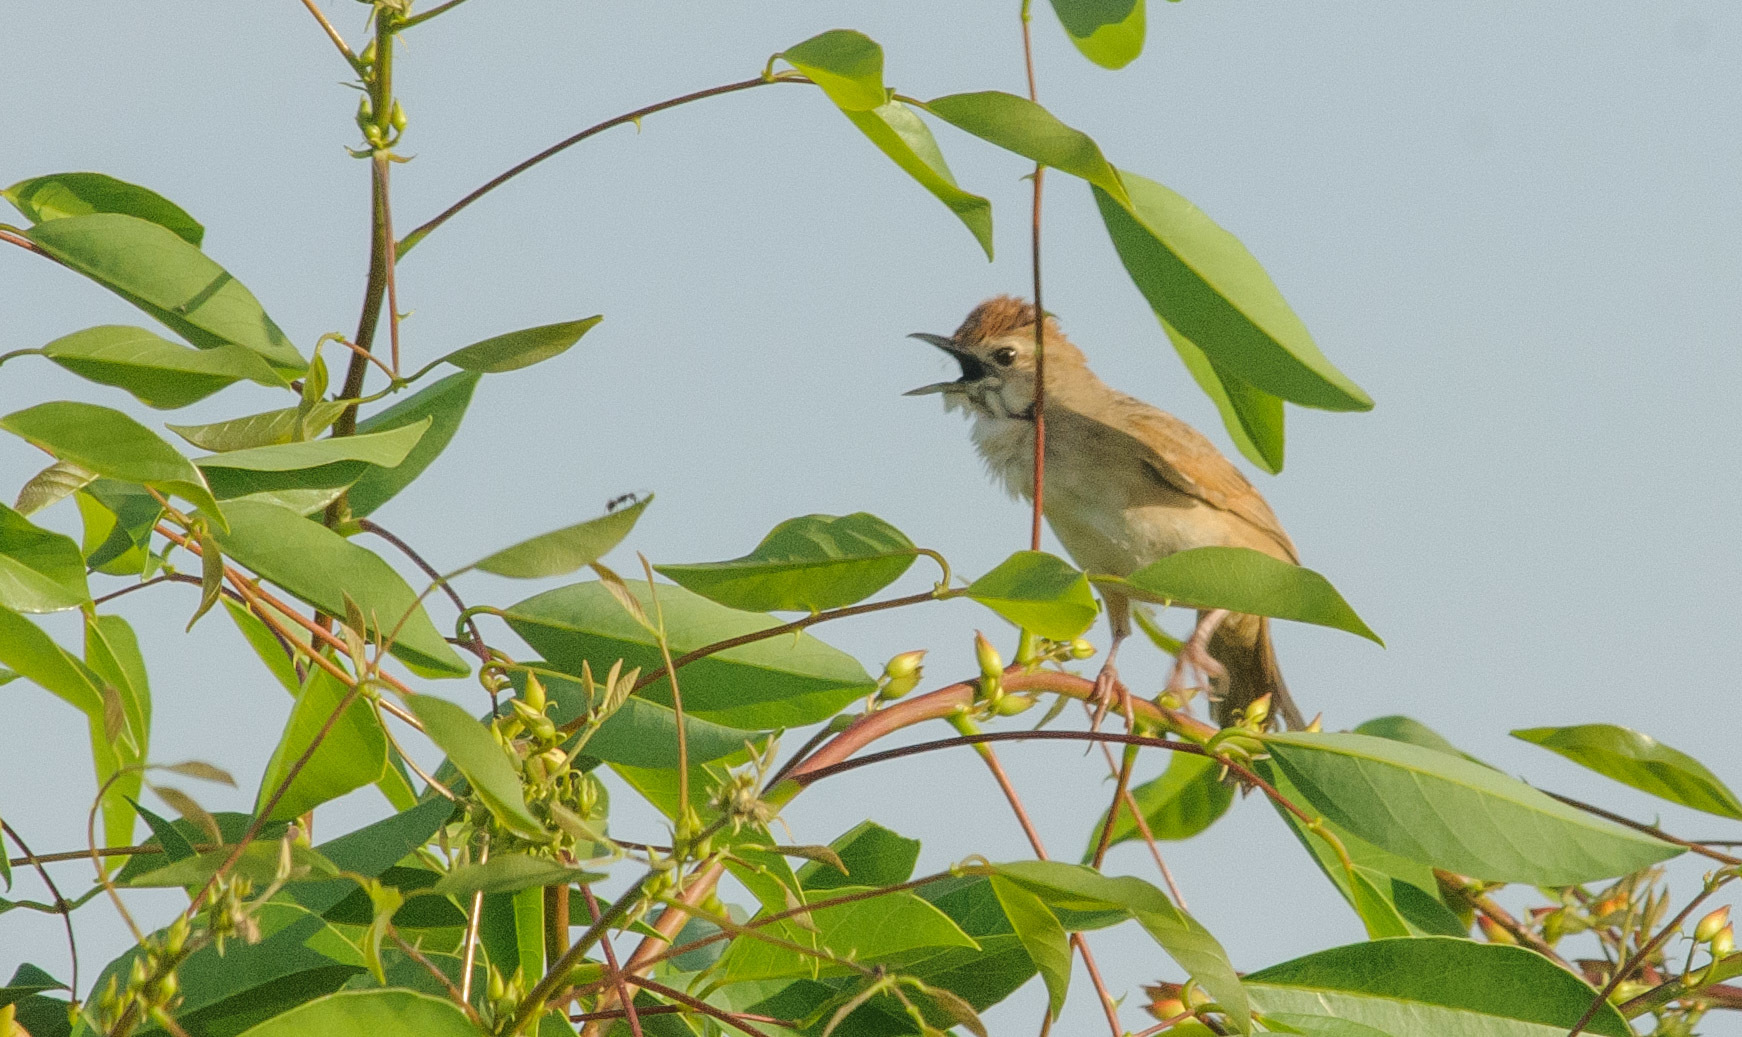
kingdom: Animalia
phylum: Chordata
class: Aves
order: Passeriformes
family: Cisticolidae
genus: Cisticola
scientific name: Cisticola exilis
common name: Golden-headed cisticola
